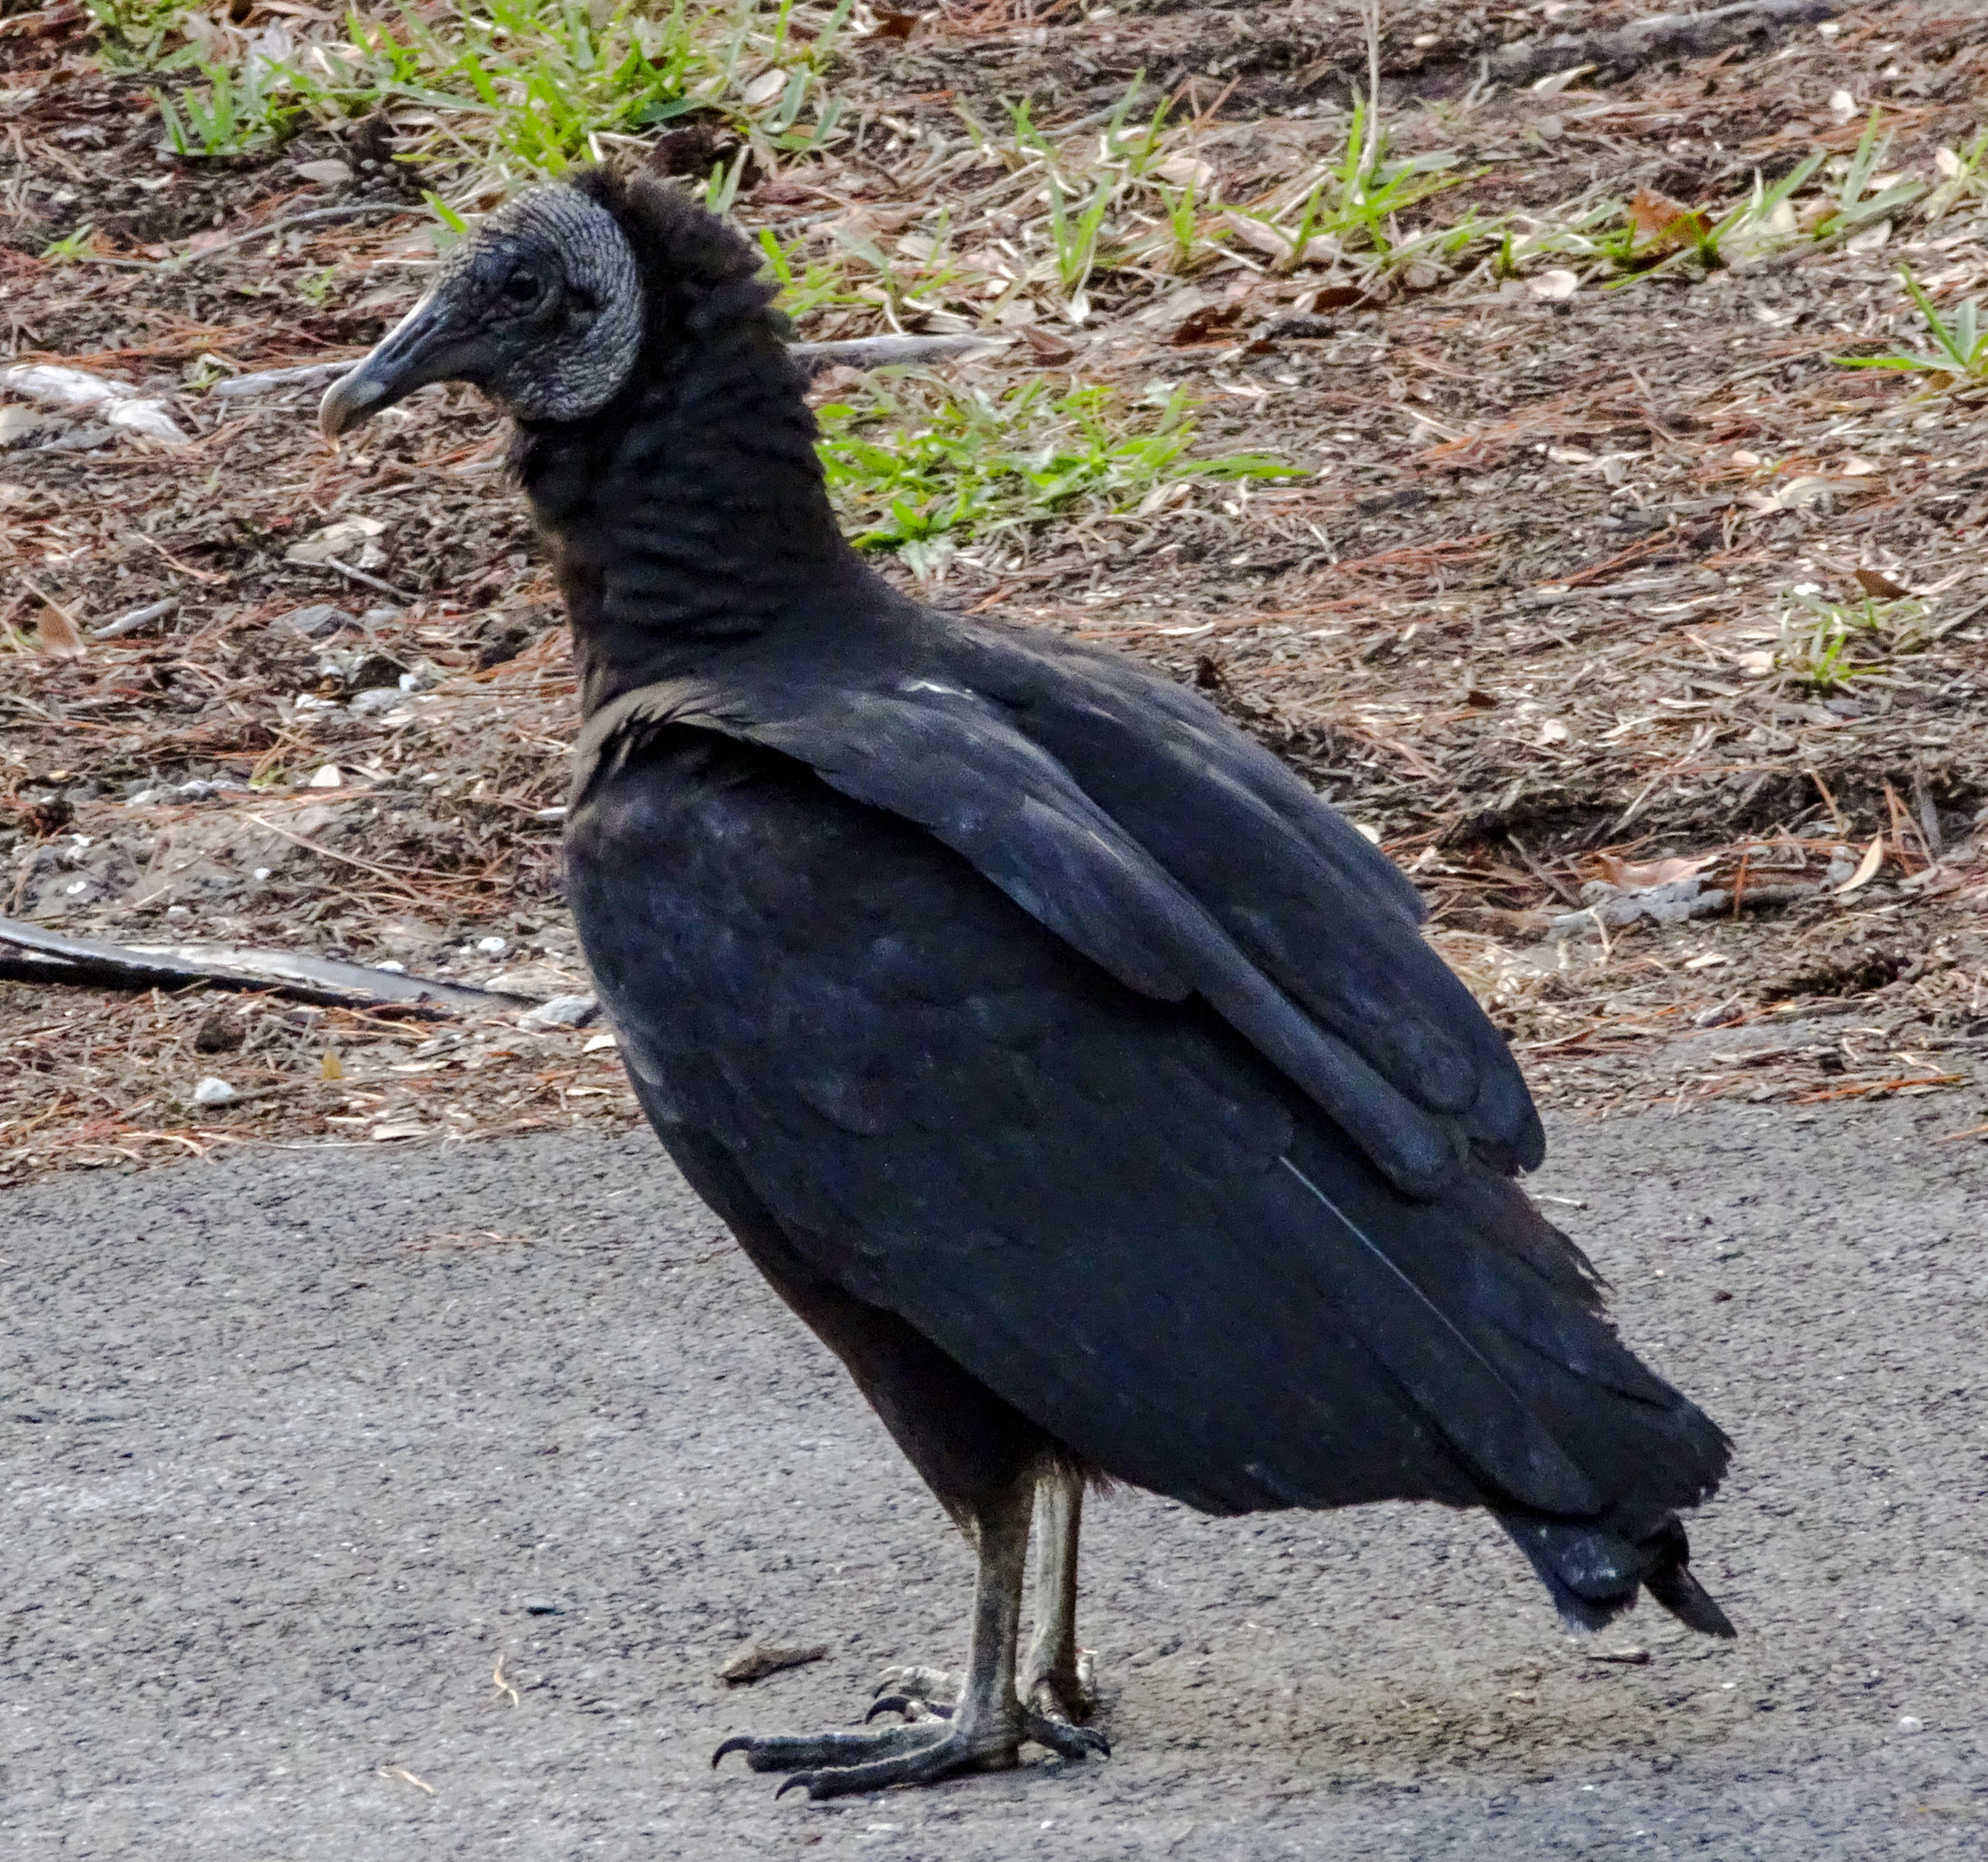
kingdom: Animalia
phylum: Chordata
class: Aves
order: Accipitriformes
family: Cathartidae
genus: Coragyps
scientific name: Coragyps atratus
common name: Black vulture
